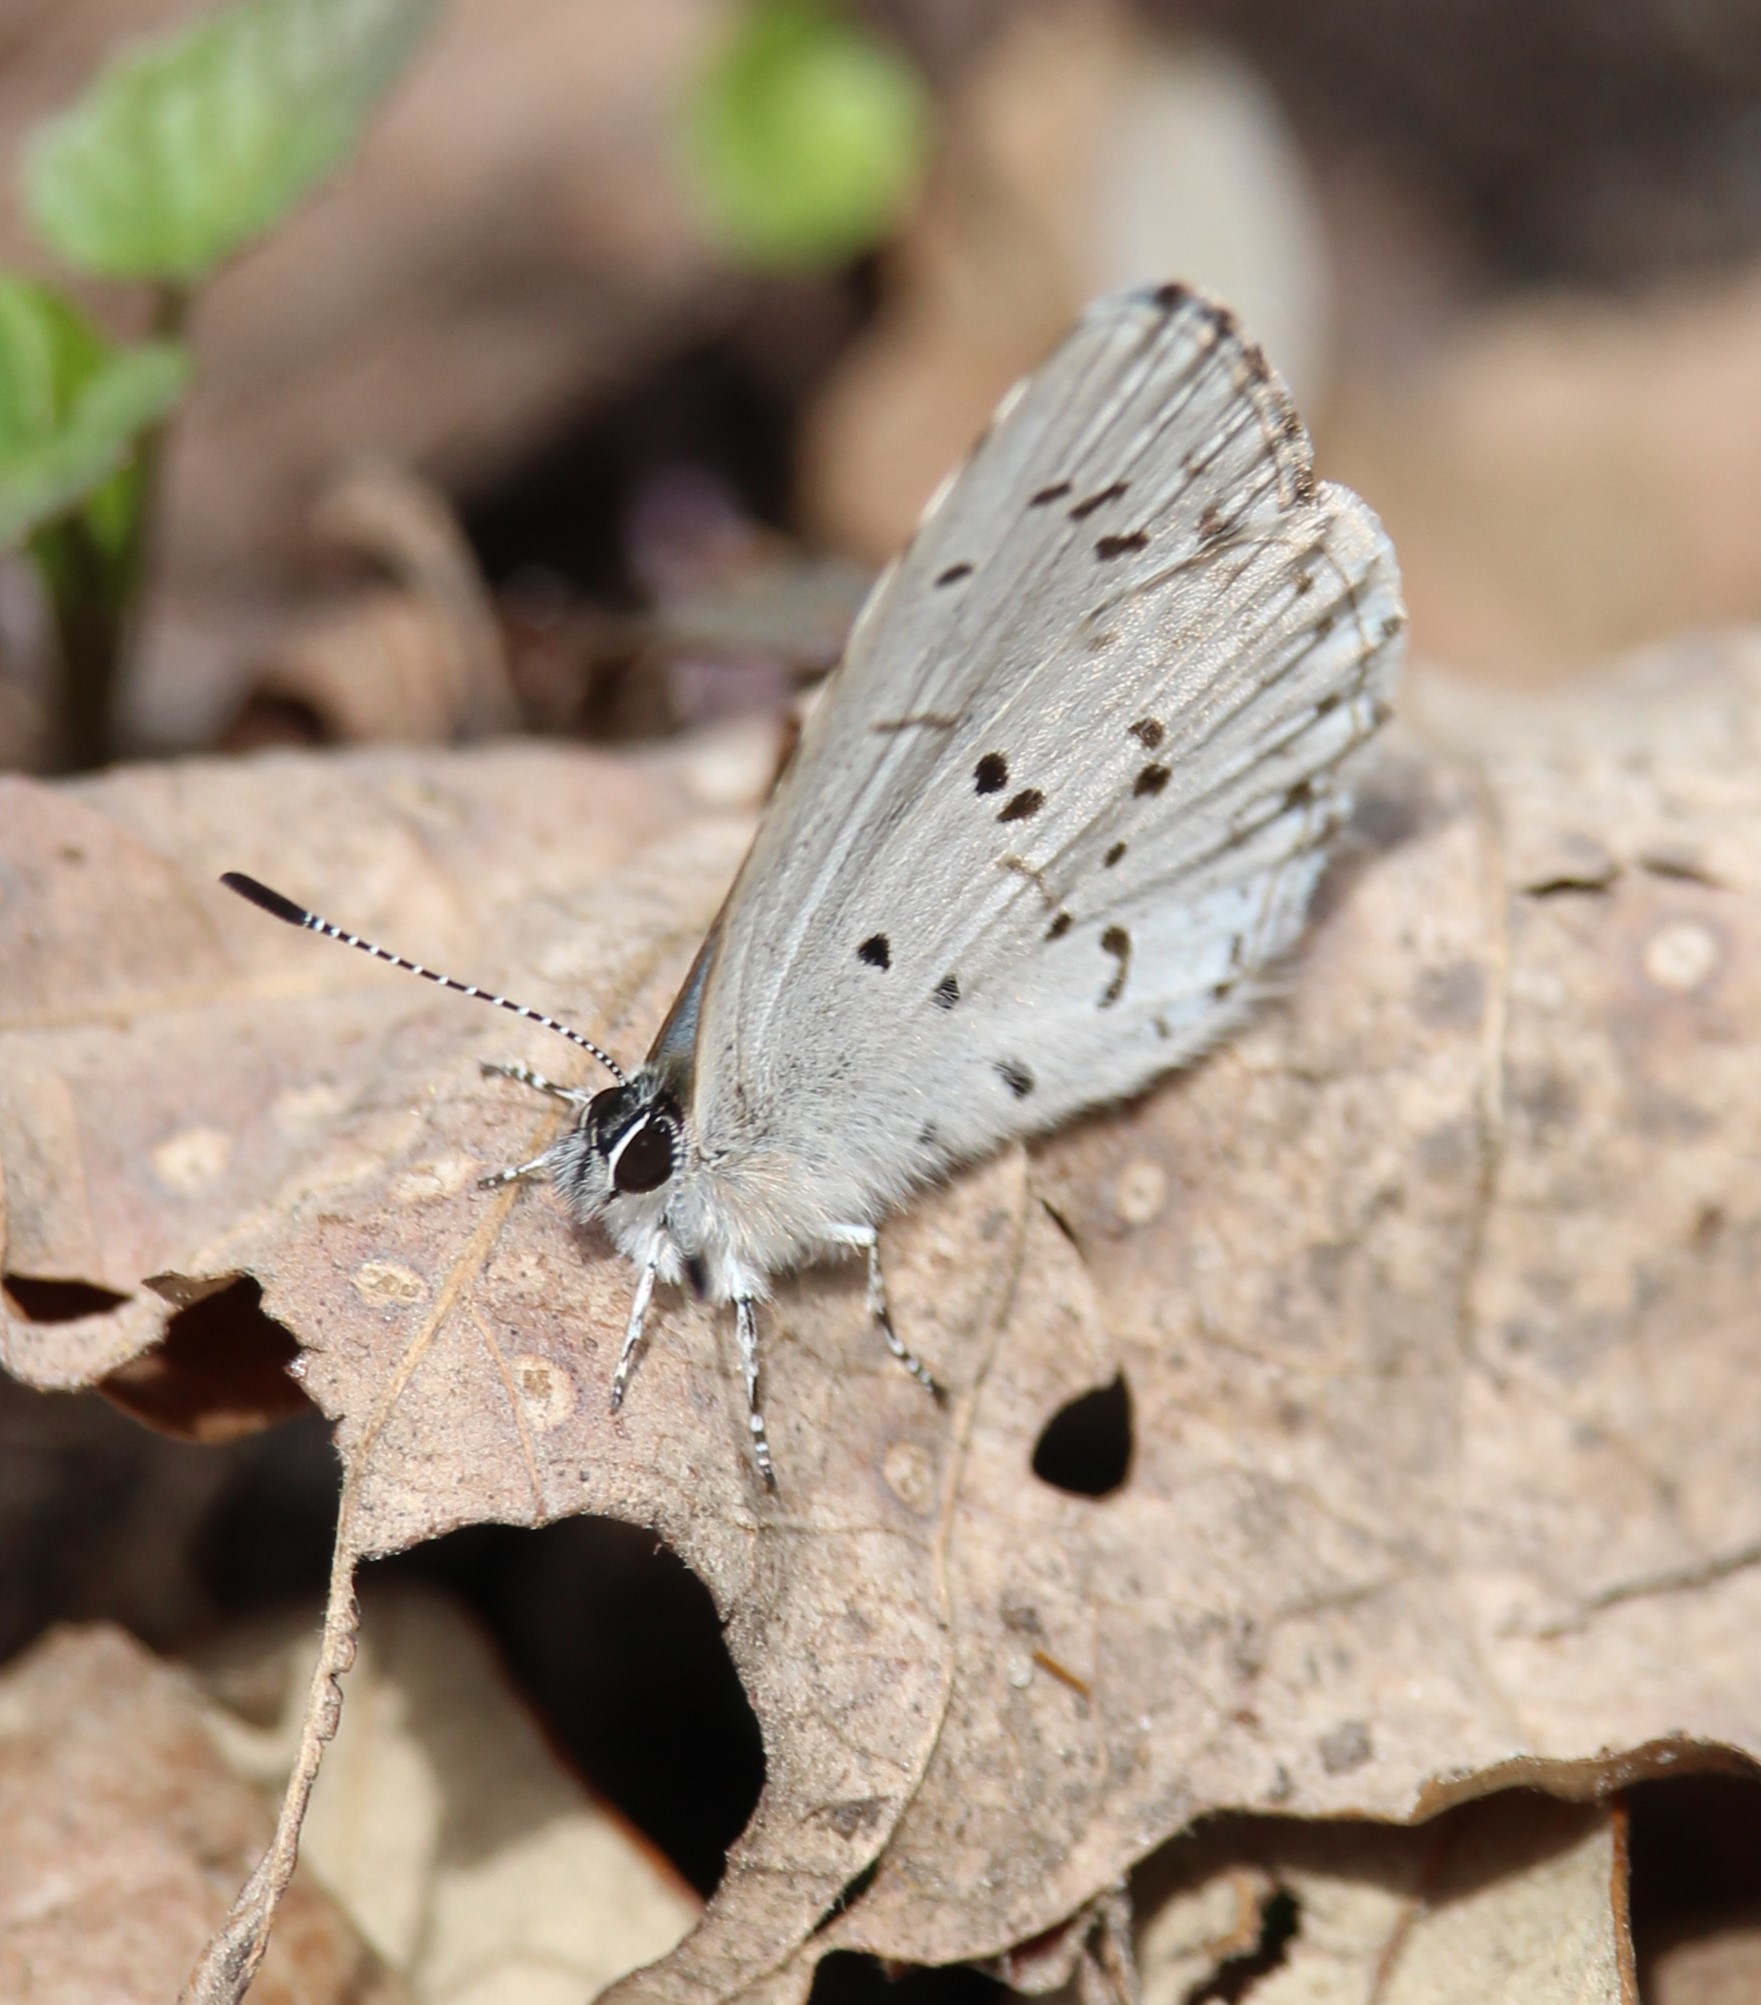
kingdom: Animalia
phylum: Arthropoda
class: Insecta
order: Lepidoptera
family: Lycaenidae
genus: Celastrina
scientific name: Celastrina lucia
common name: Lucia azure
